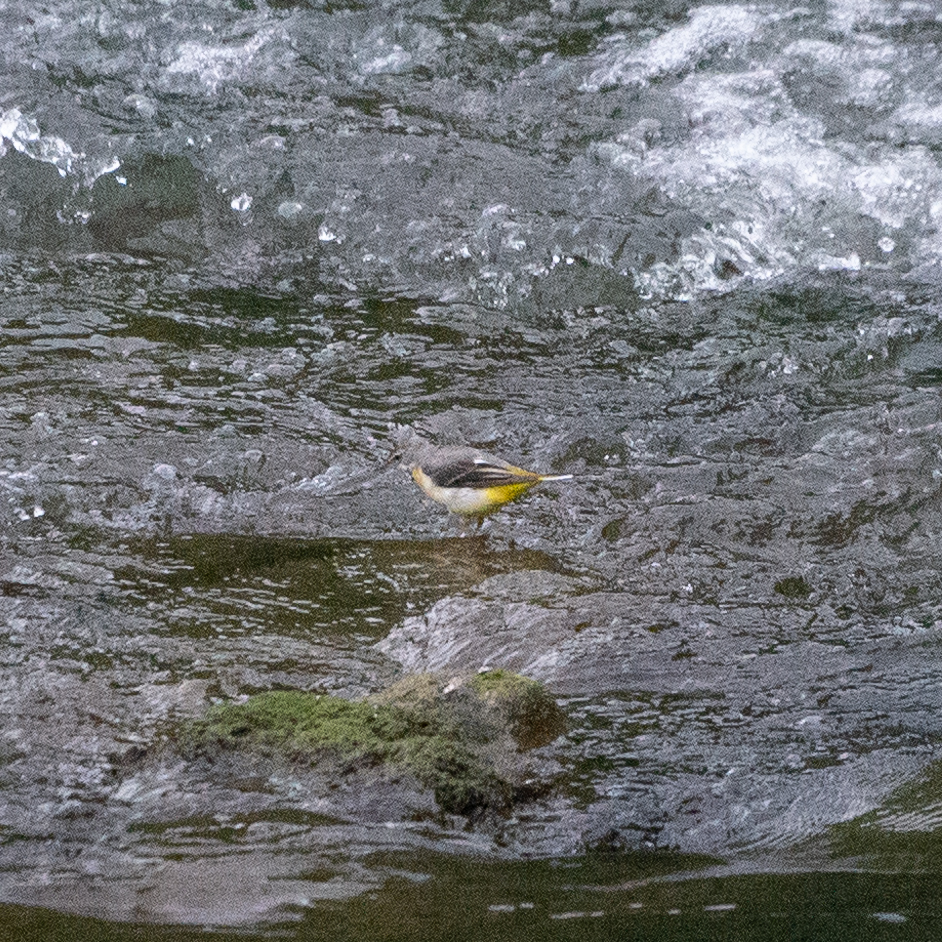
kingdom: Animalia
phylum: Chordata
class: Aves
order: Passeriformes
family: Motacillidae
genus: Motacilla
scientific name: Motacilla cinerea
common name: Grey wagtail
